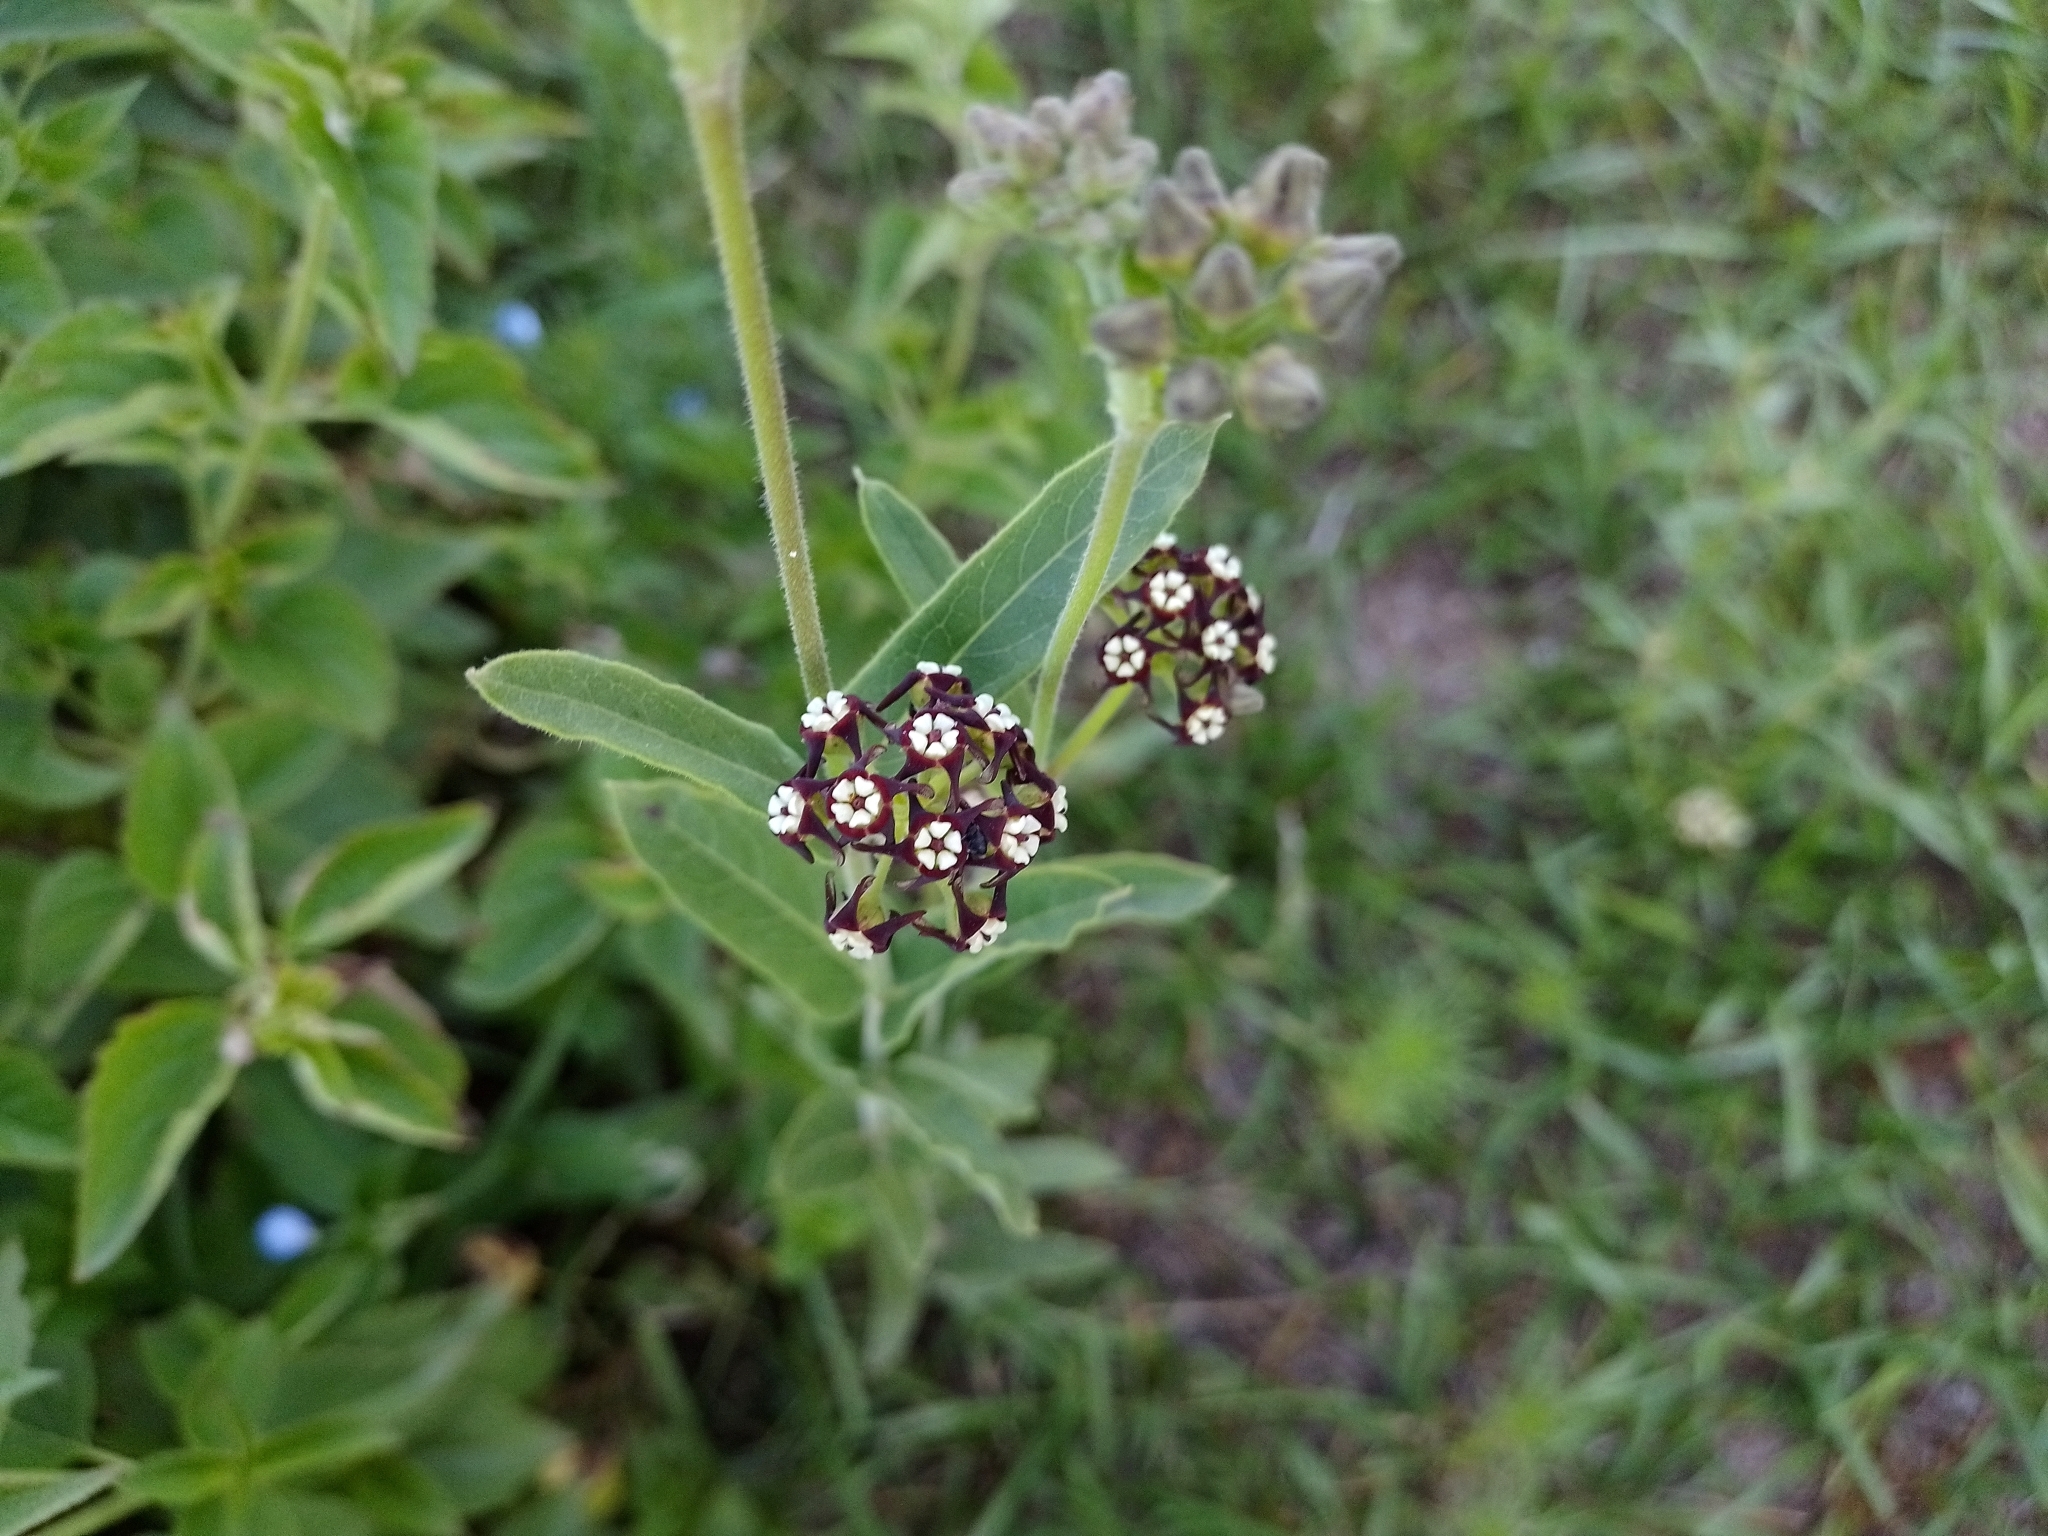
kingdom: Plantae
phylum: Tracheophyta
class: Magnoliopsida
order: Gentianales
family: Apocynaceae
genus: Oxypetalum
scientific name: Oxypetalum arnottianum
